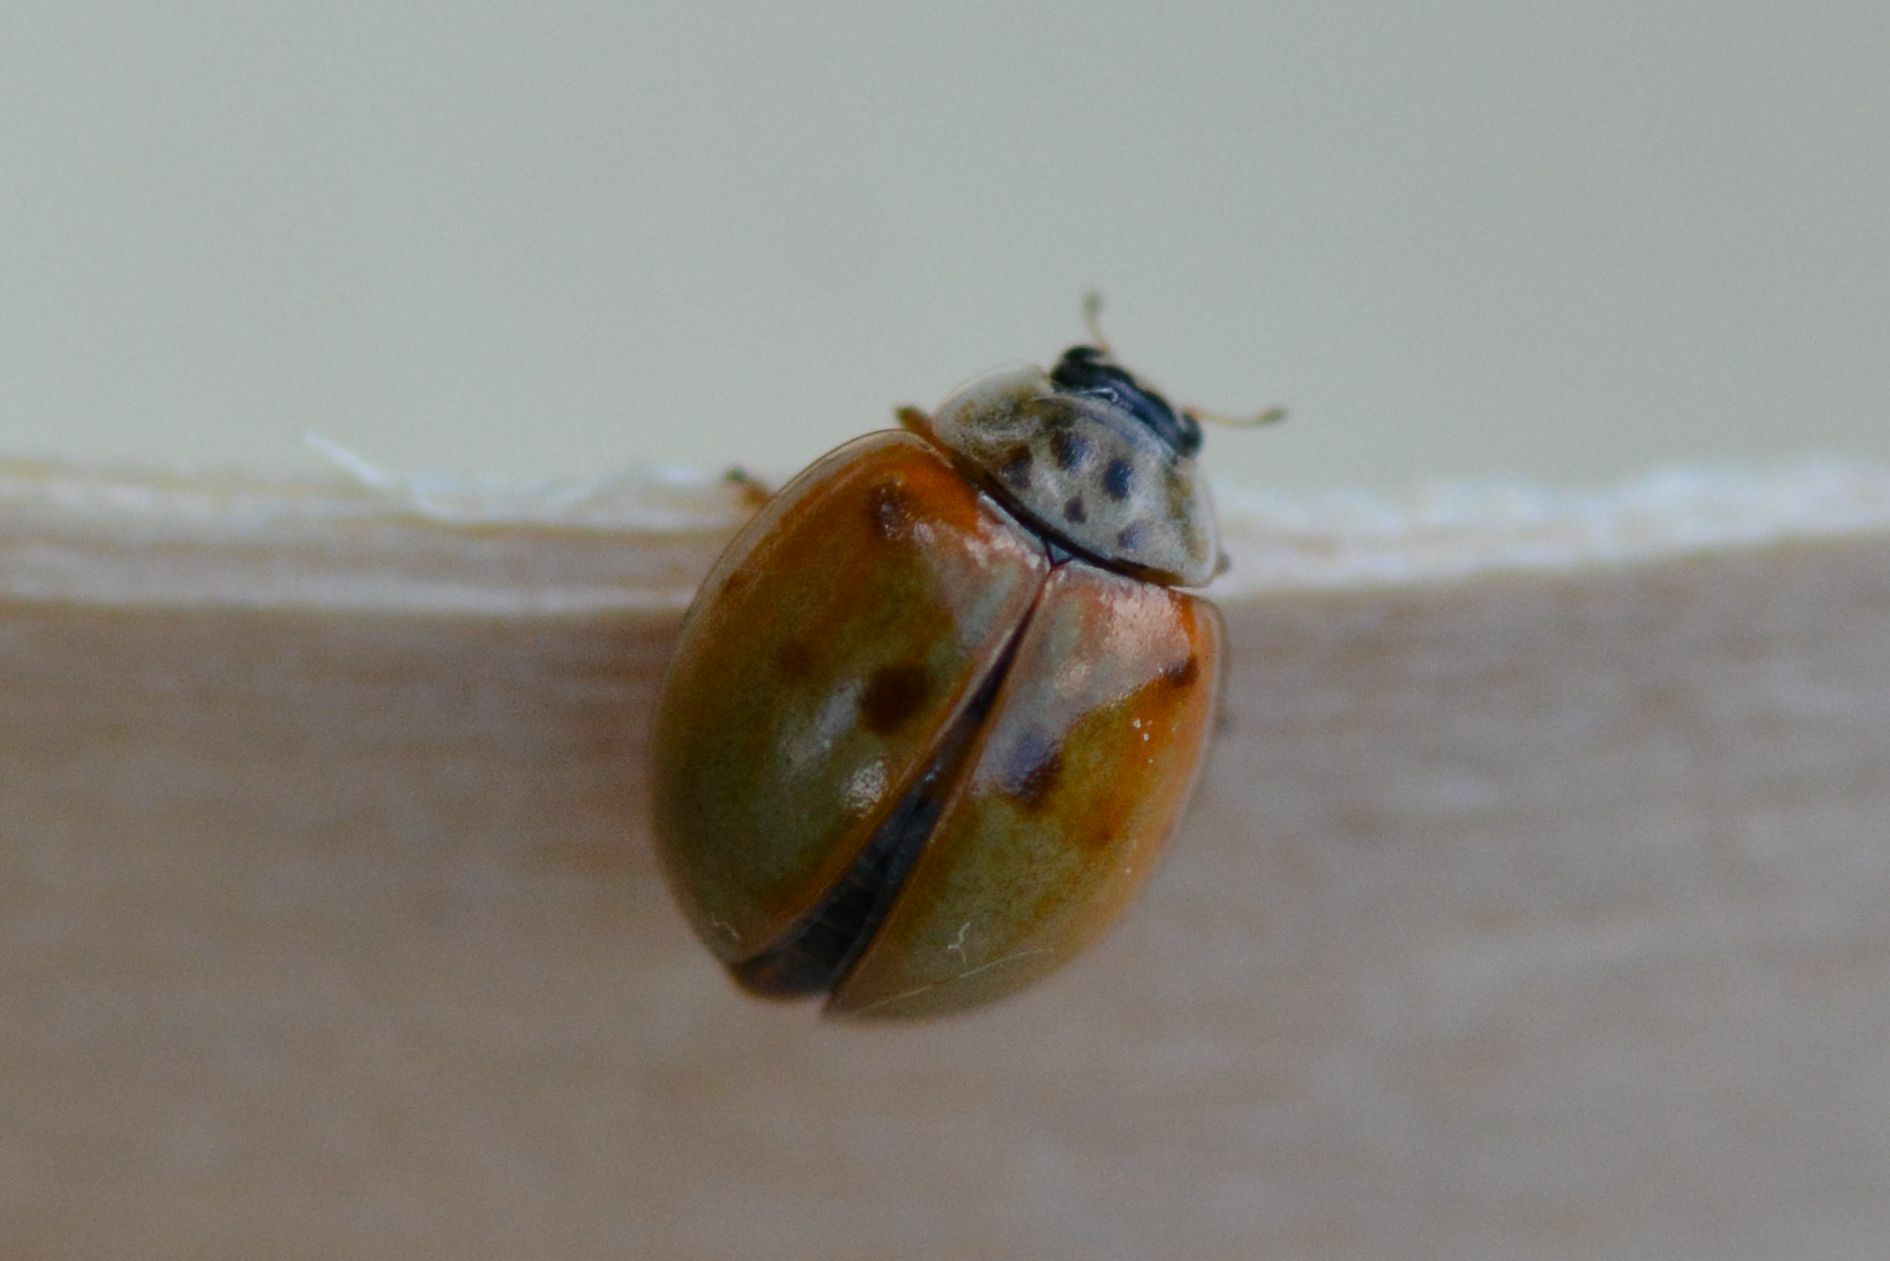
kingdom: Animalia
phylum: Arthropoda
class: Insecta
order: Coleoptera
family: Coccinellidae
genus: Adalia
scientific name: Adalia decempunctata
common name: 10-spot ladybird
